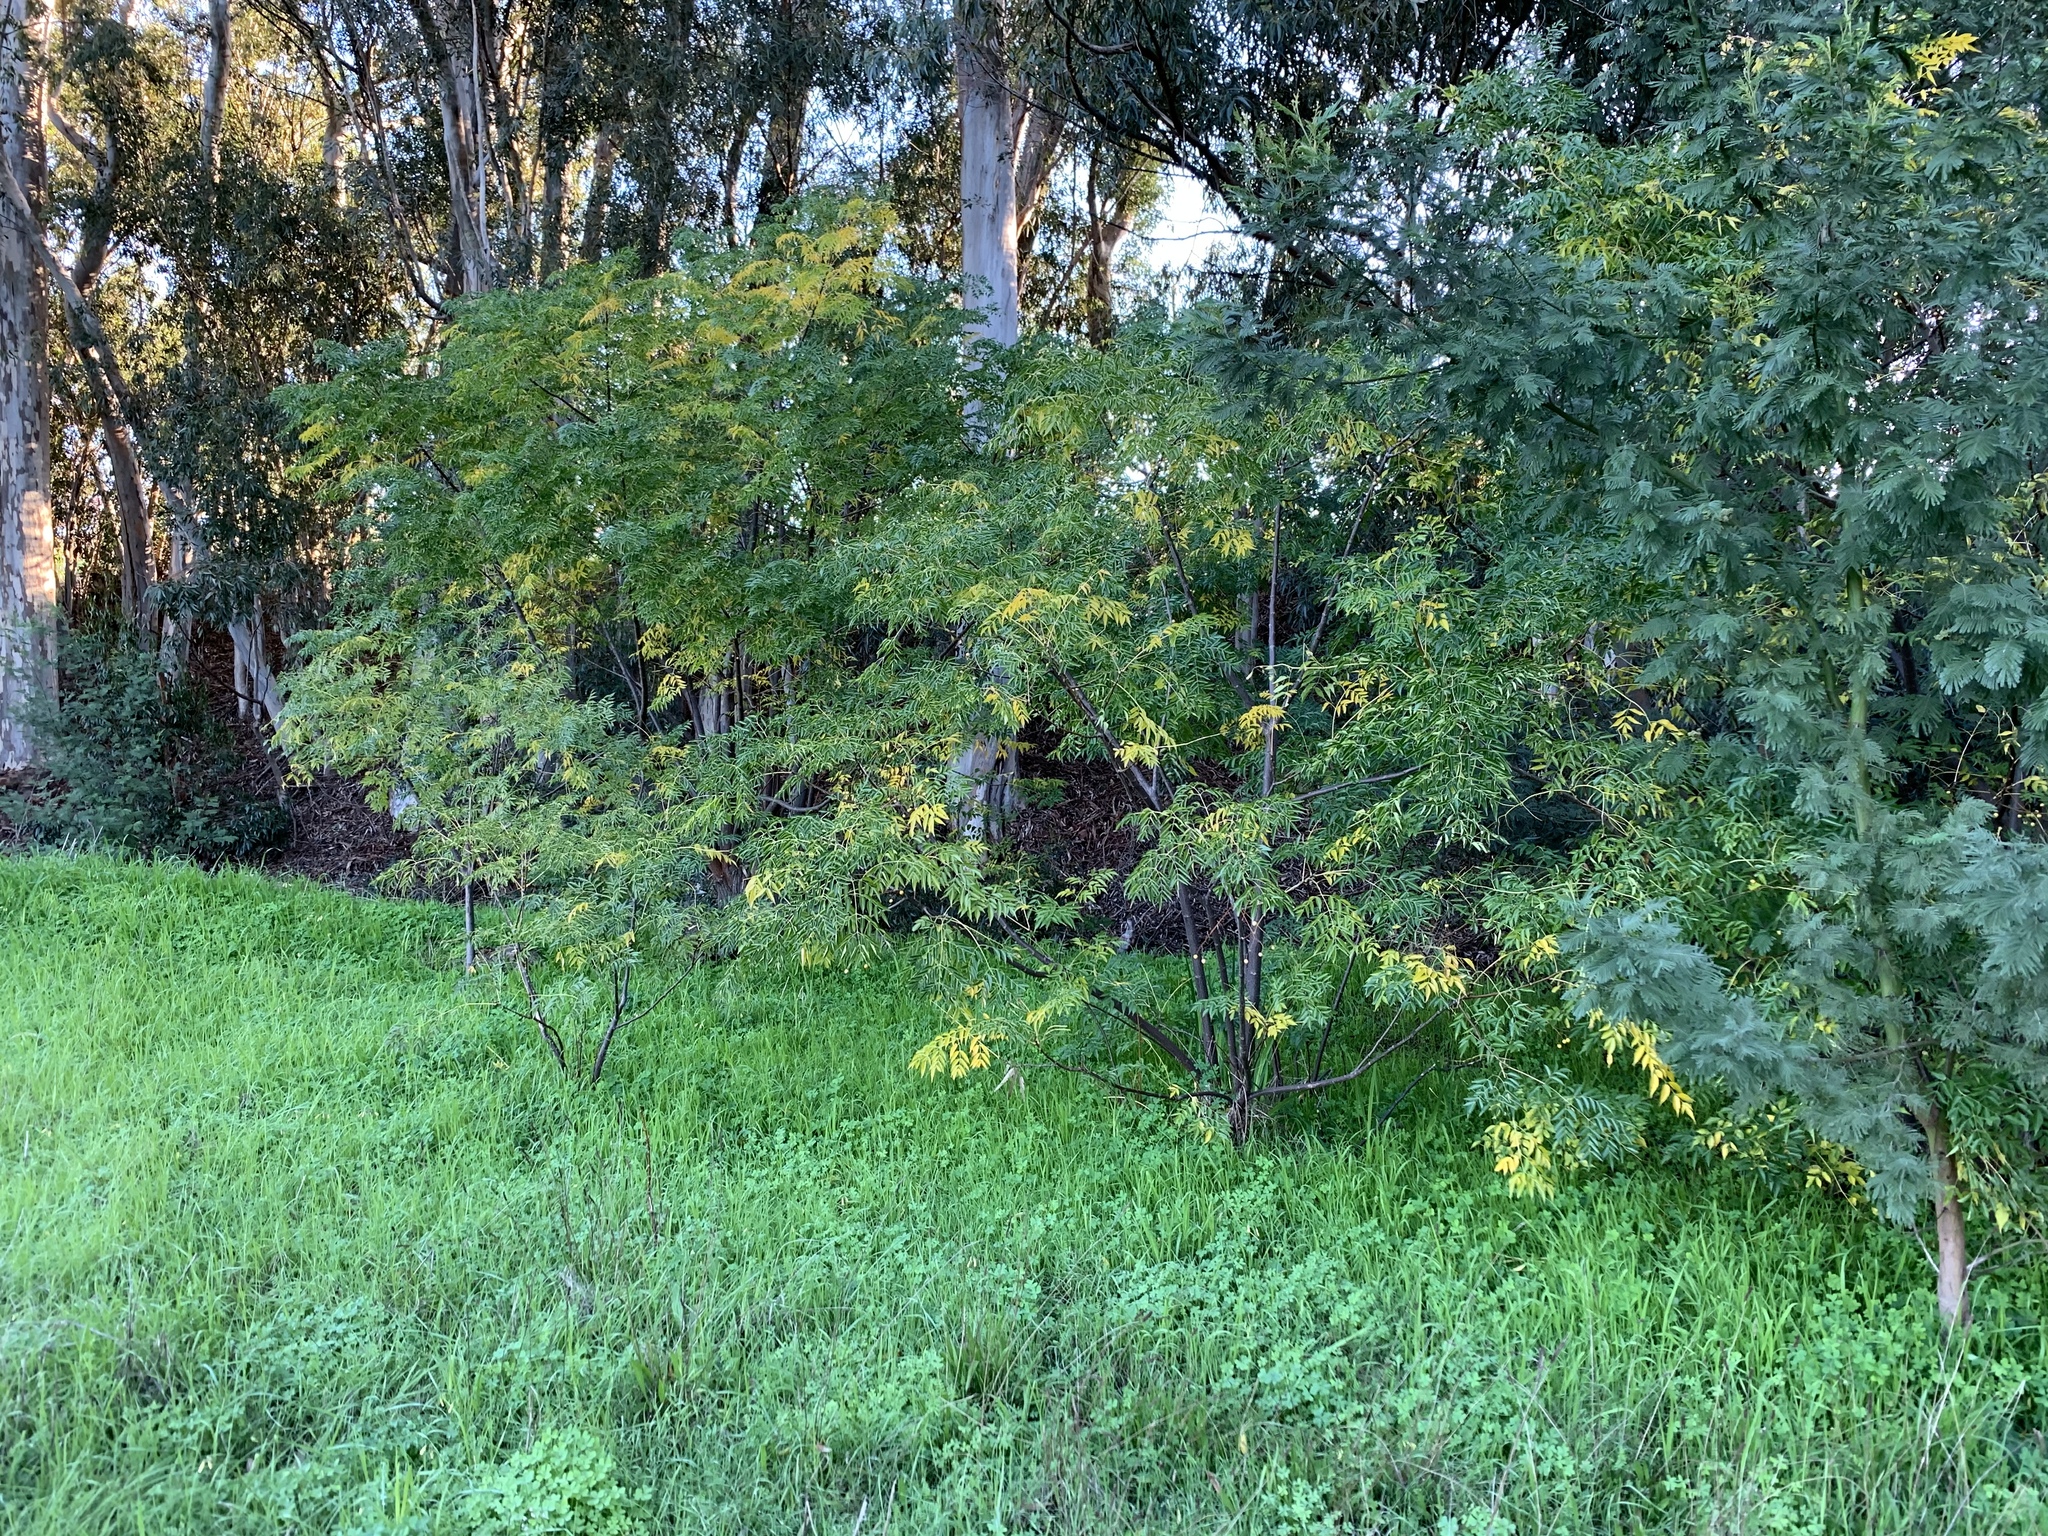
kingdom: Plantae
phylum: Tracheophyta
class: Magnoliopsida
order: Sapindales
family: Meliaceae
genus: Melia
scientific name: Melia azedarach
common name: Chinaberrytree
